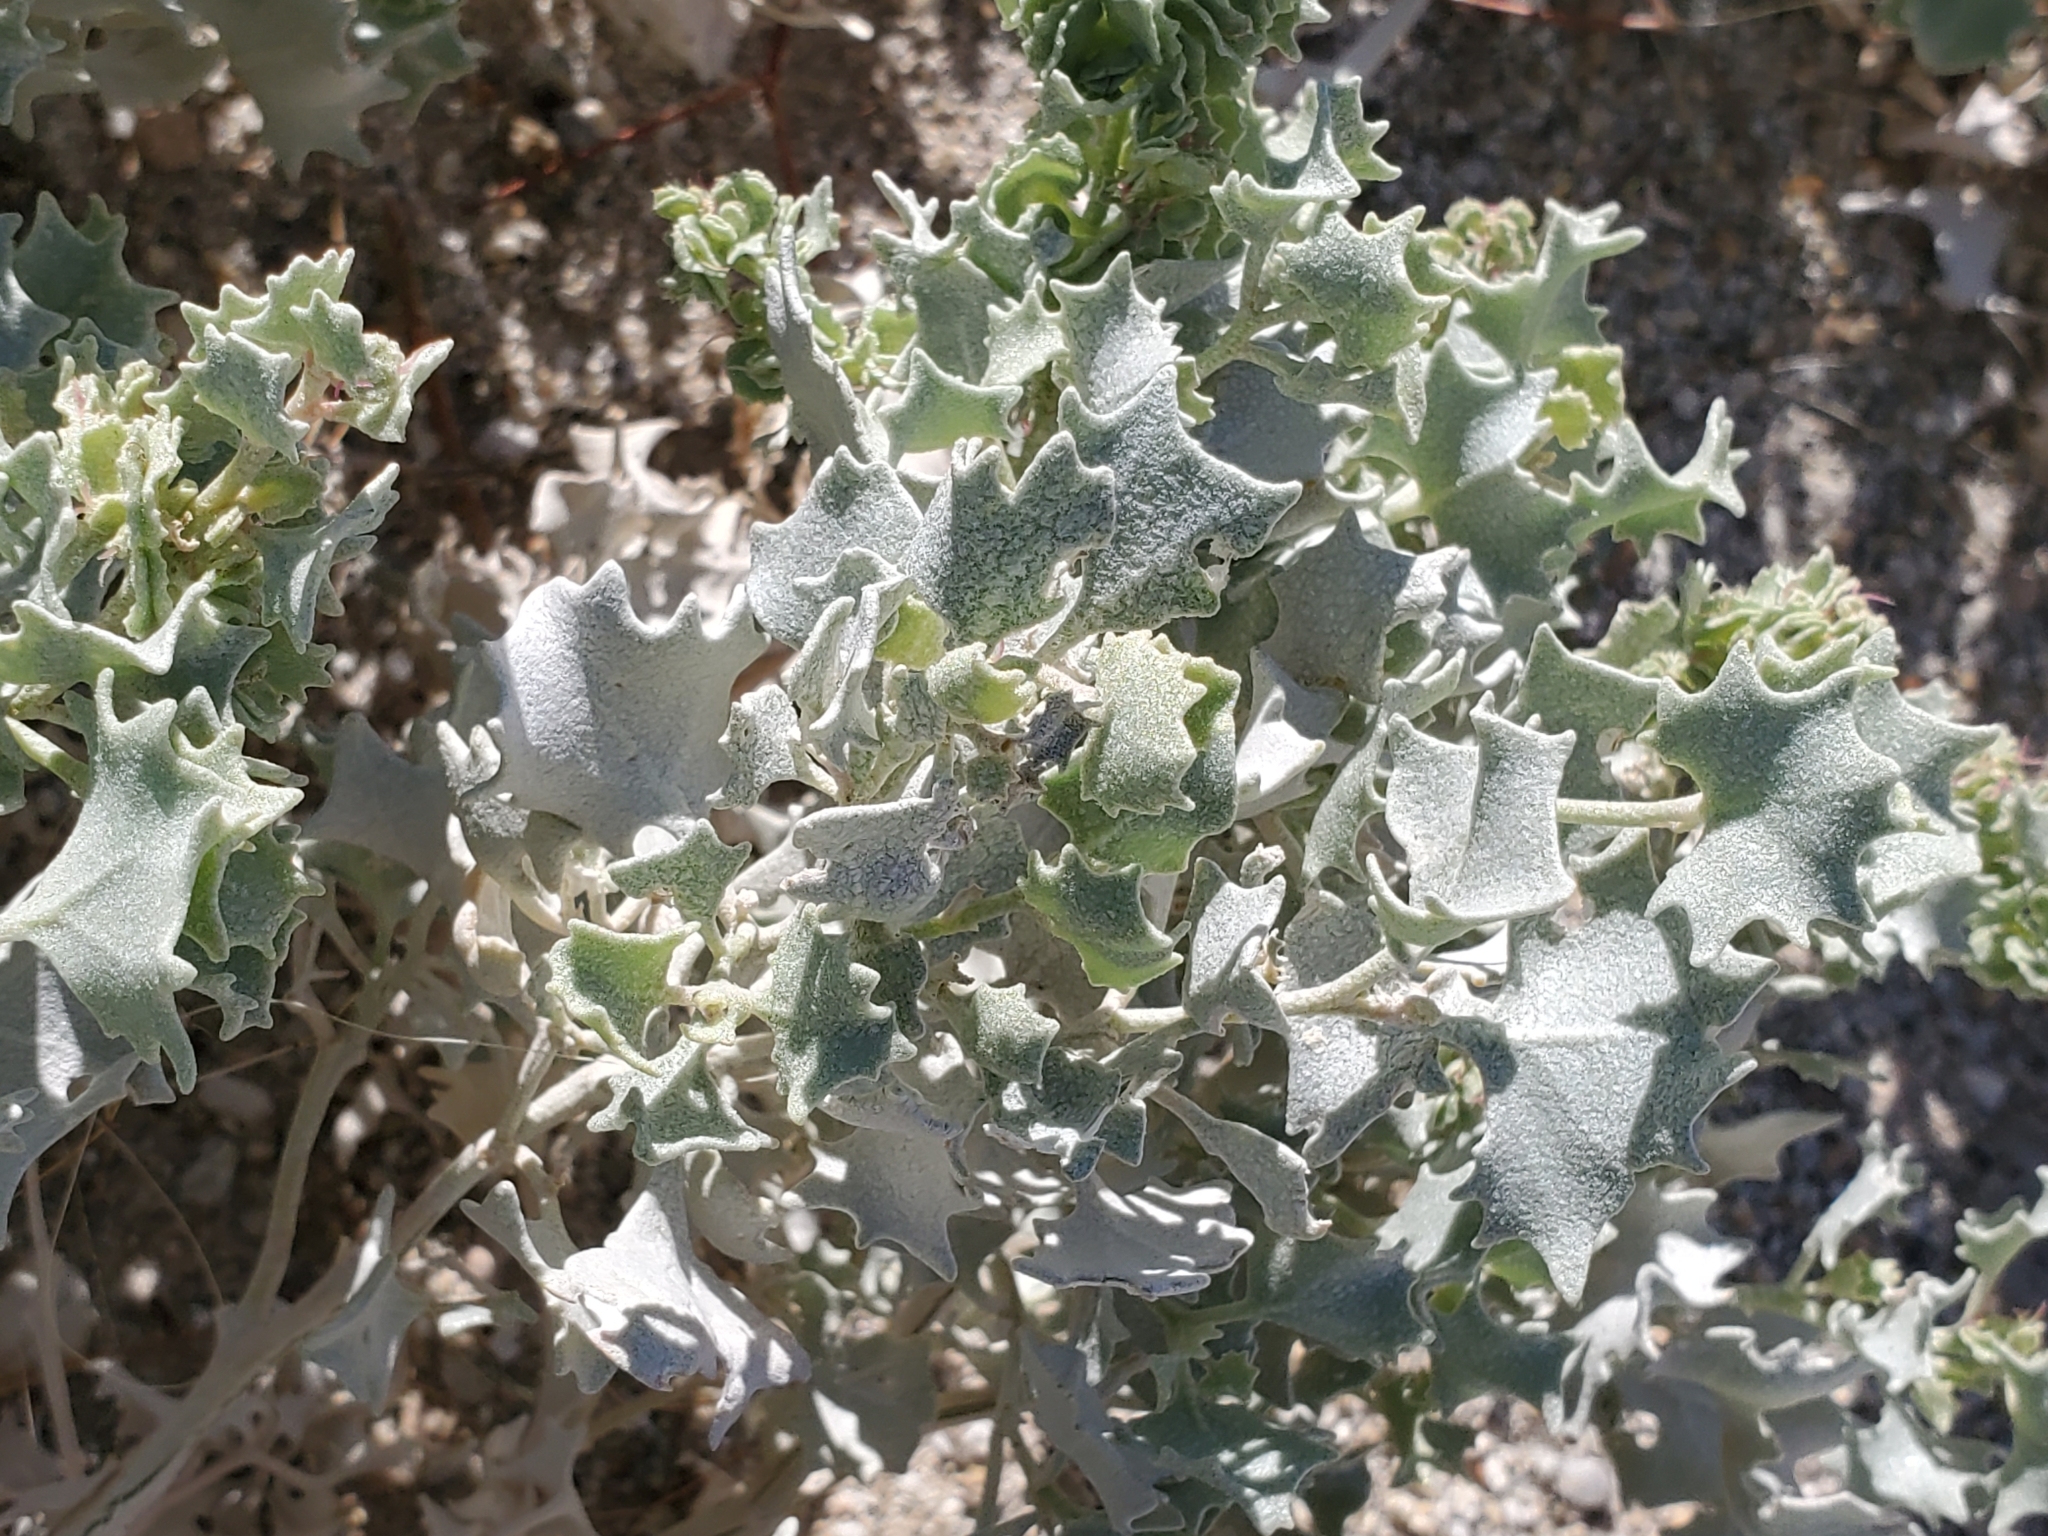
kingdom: Plantae
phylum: Tracheophyta
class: Magnoliopsida
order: Caryophyllales
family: Amaranthaceae
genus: Atriplex
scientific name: Atriplex hymenelytra
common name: Desert-holly
